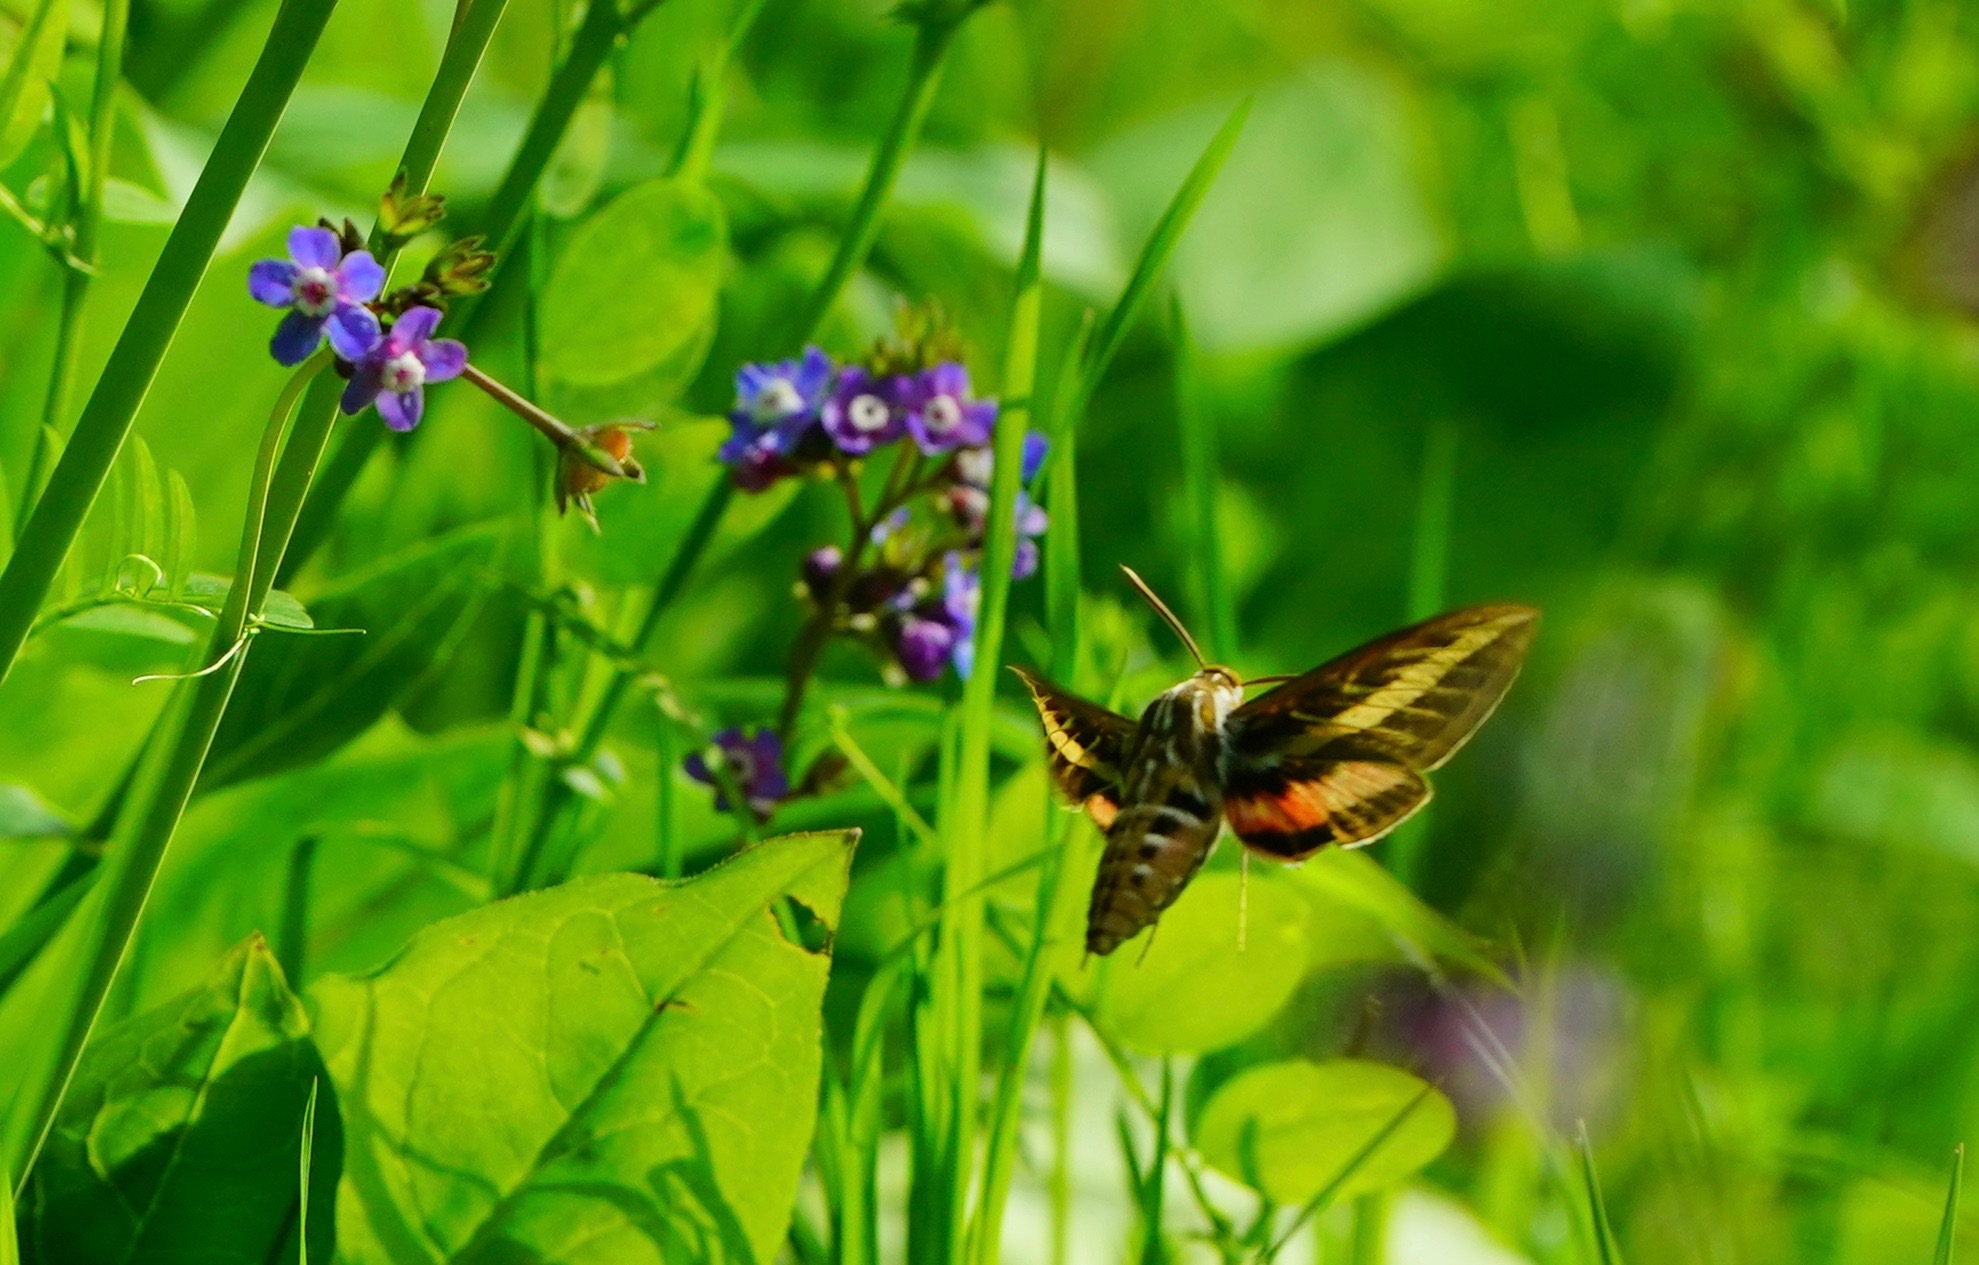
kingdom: Animalia
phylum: Arthropoda
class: Insecta
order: Lepidoptera
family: Sphingidae
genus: Hyles
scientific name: Hyles lineata
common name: White-lined sphinx
